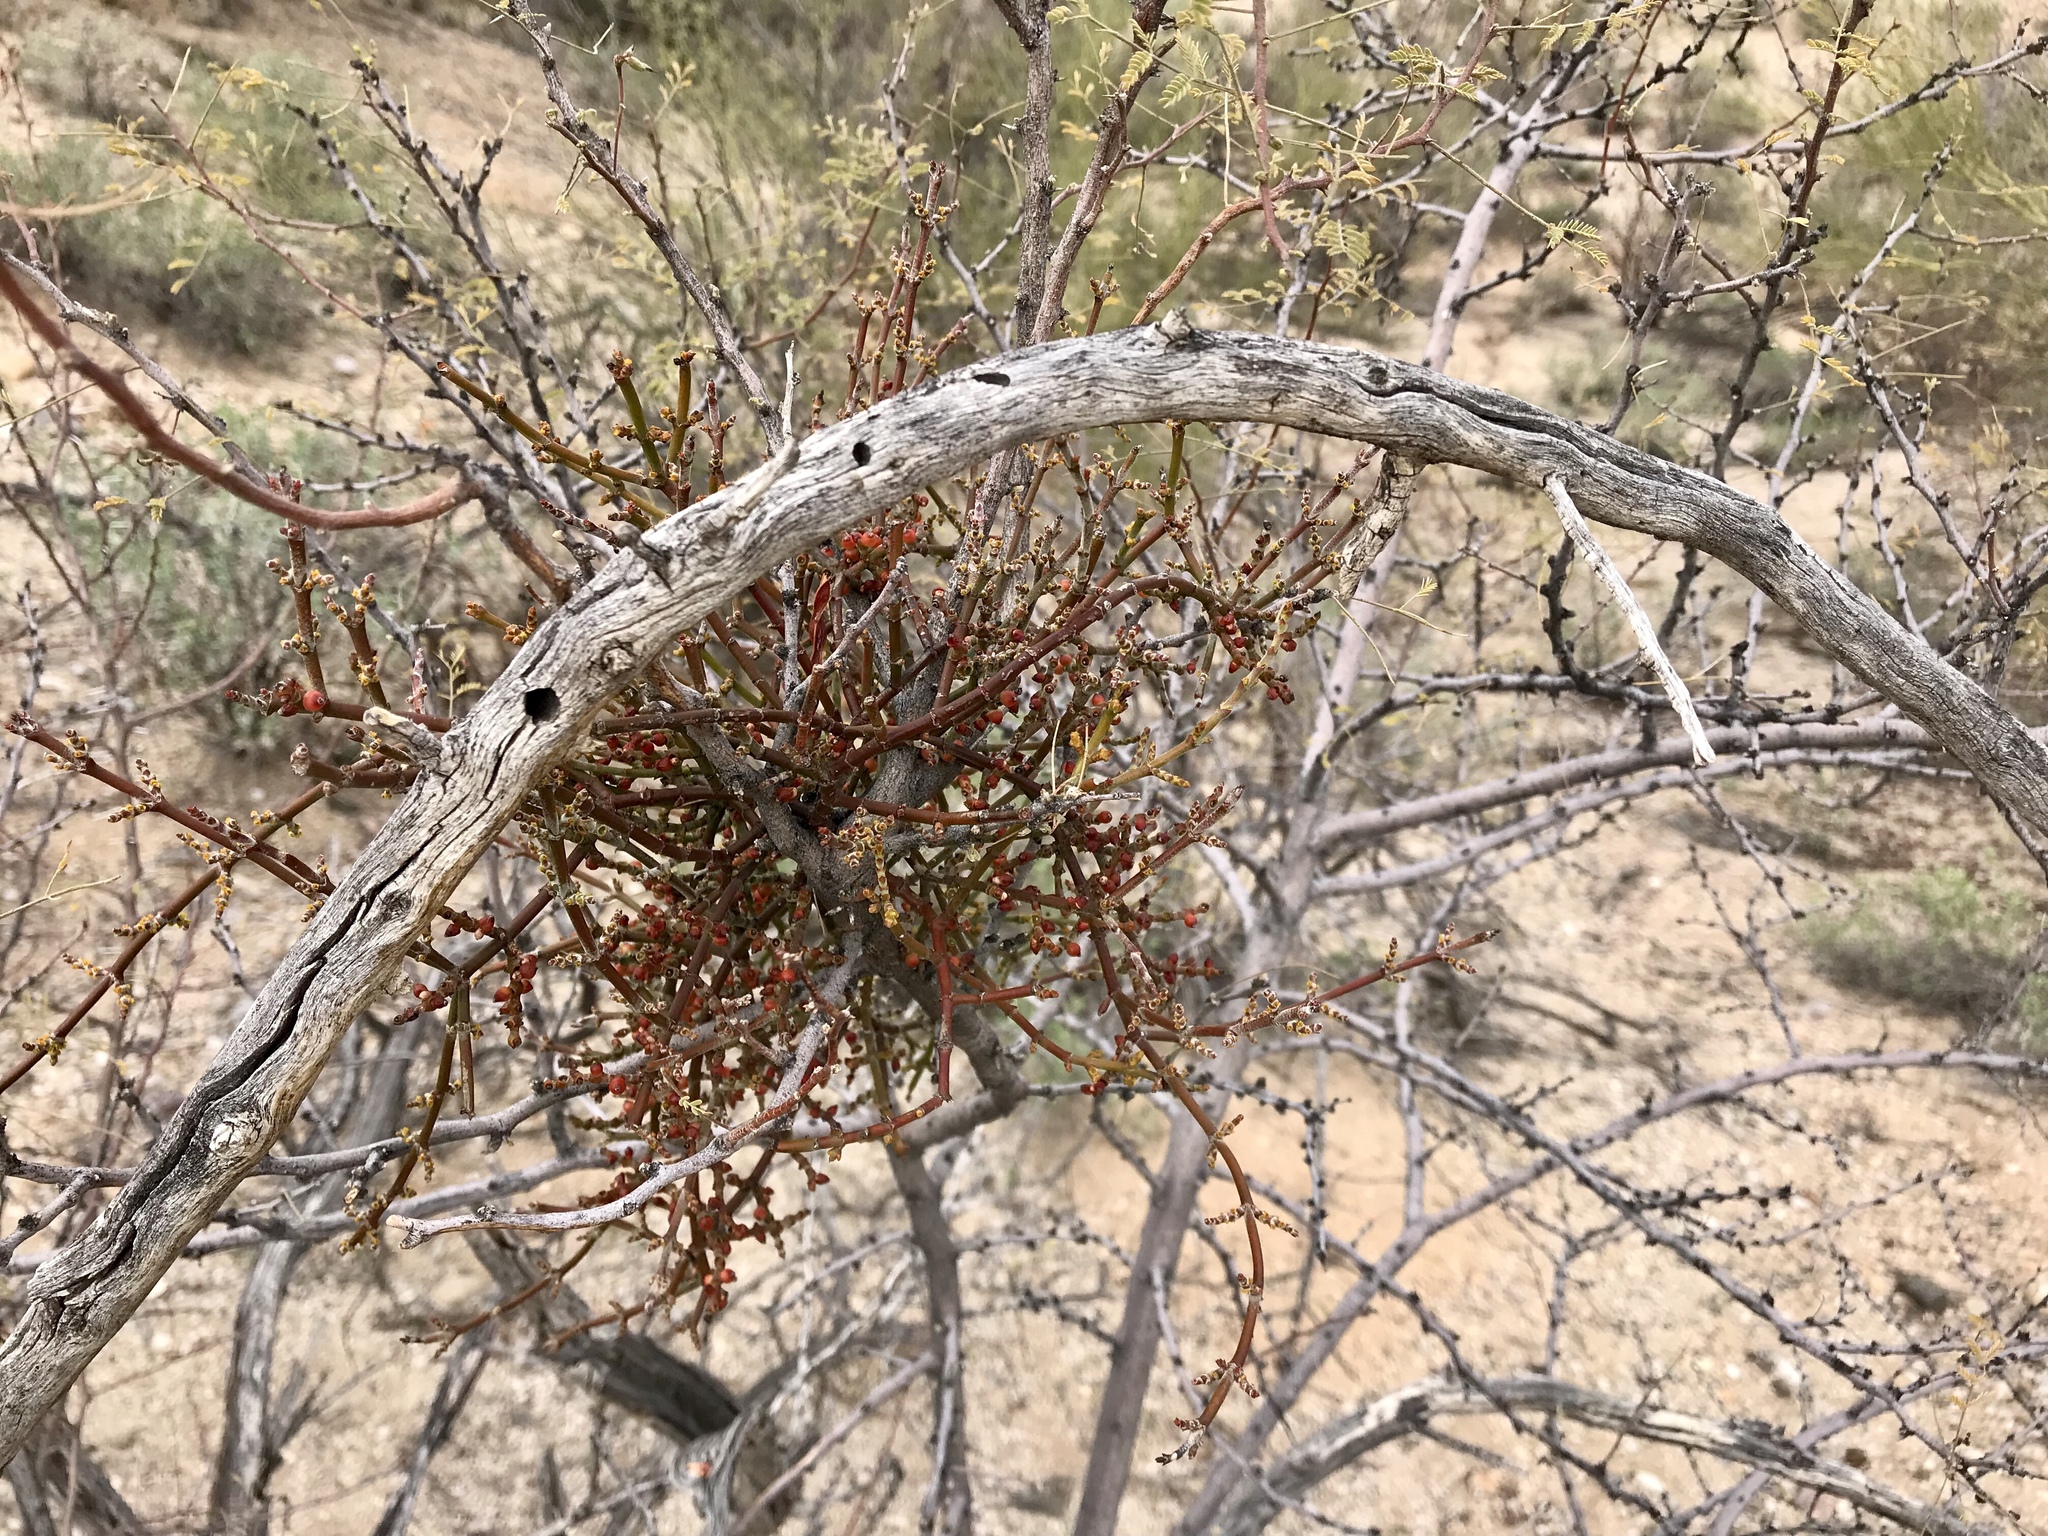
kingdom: Plantae
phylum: Tracheophyta
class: Magnoliopsida
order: Santalales
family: Viscaceae
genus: Phoradendron
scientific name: Phoradendron californicum
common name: Acacia mistletoe
